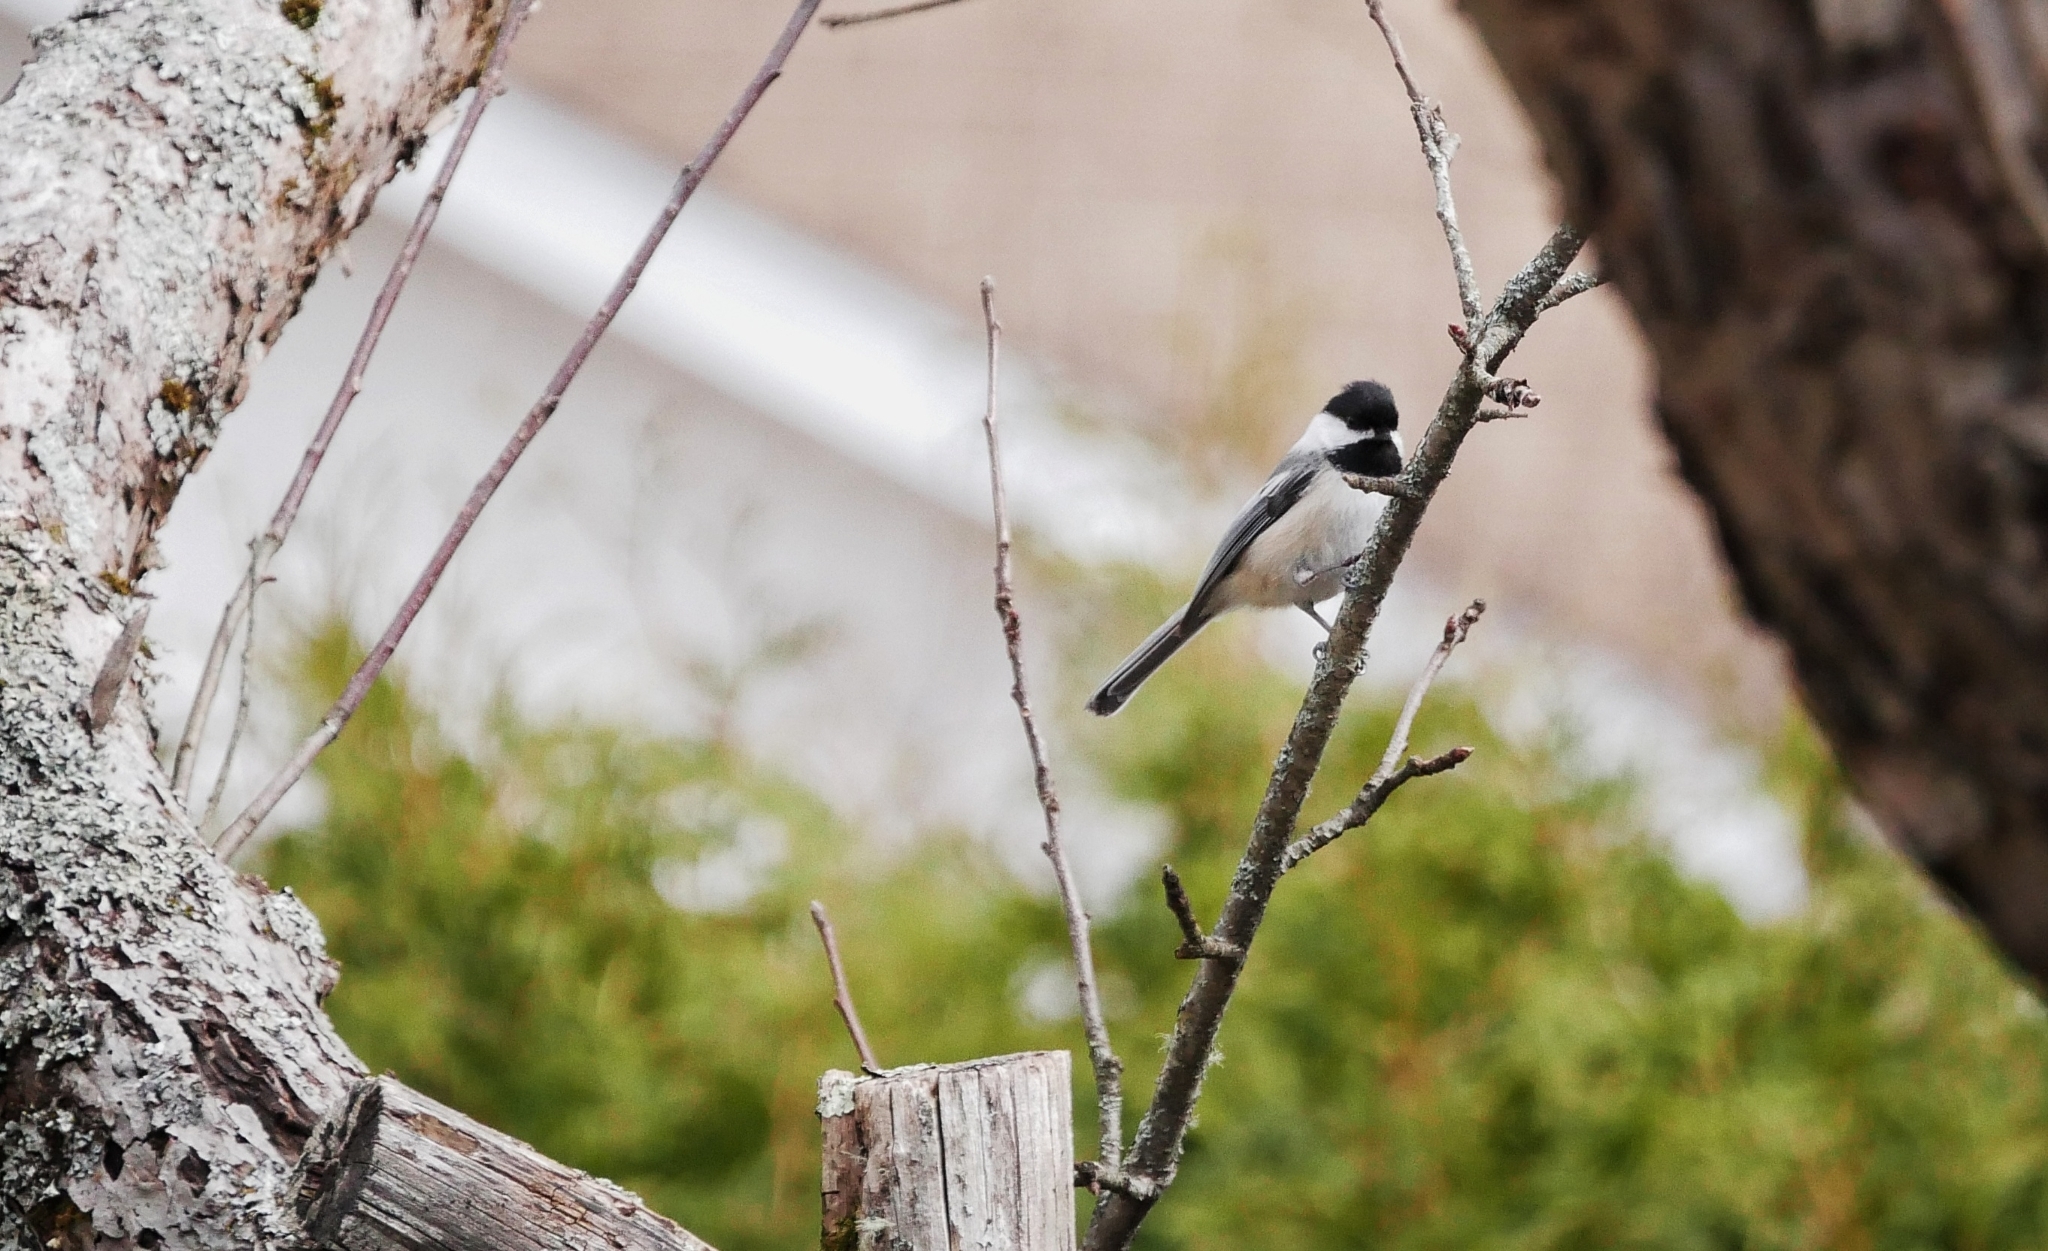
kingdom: Animalia
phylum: Chordata
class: Aves
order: Passeriformes
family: Paridae
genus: Poecile
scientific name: Poecile atricapillus
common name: Black-capped chickadee
